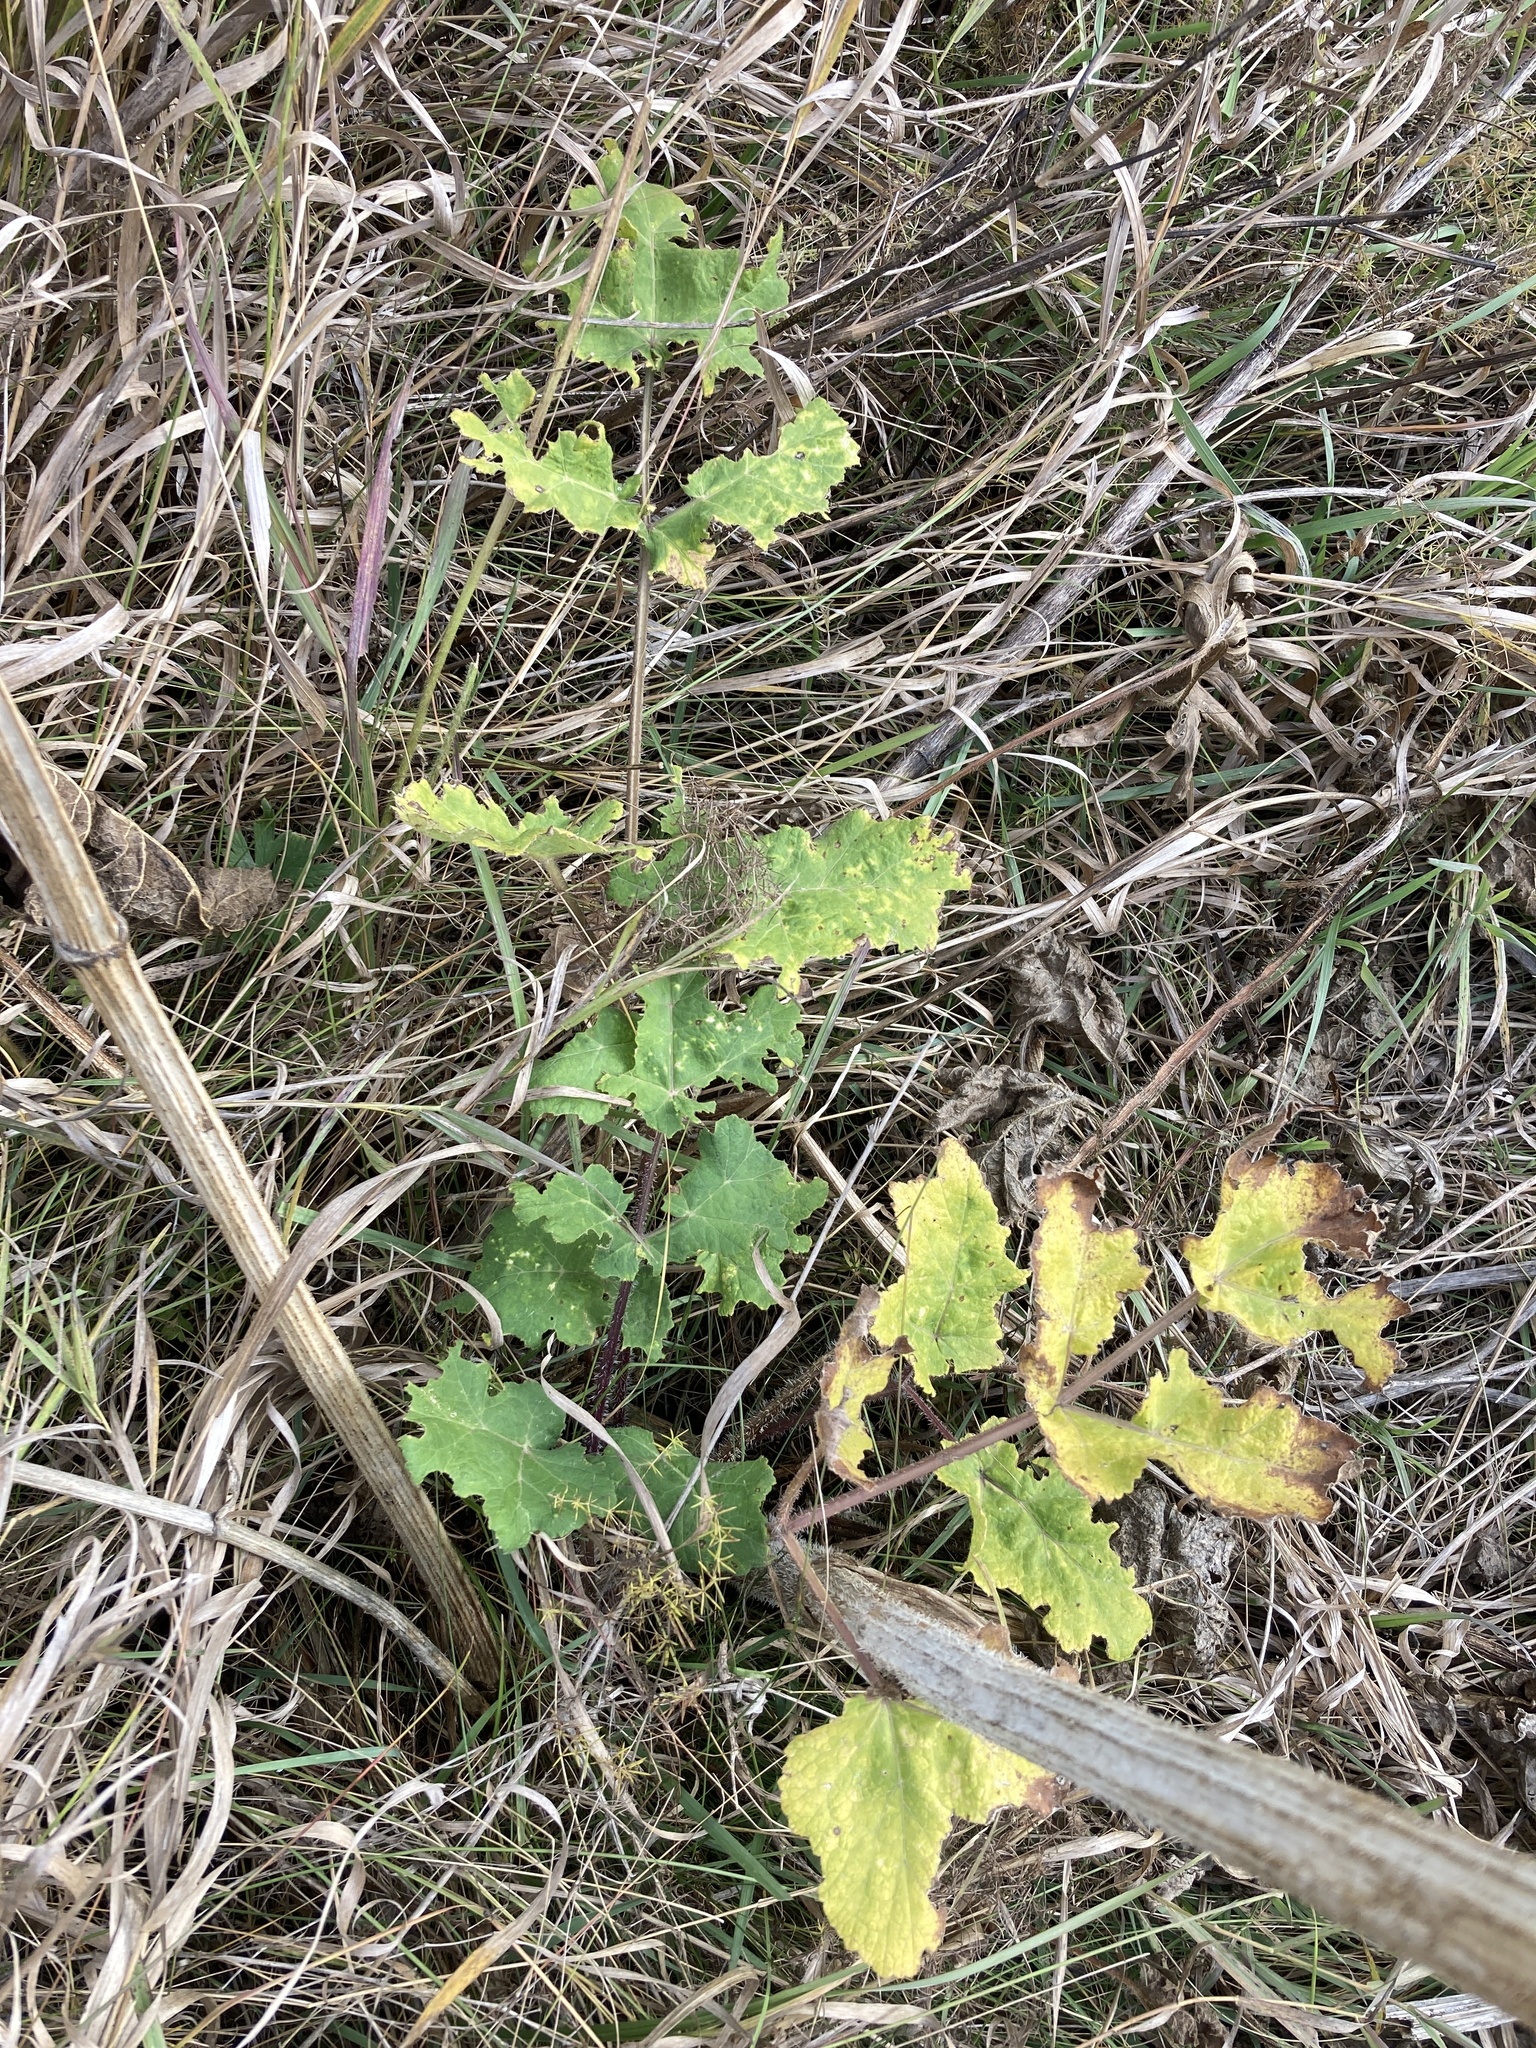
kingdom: Plantae
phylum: Tracheophyta
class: Magnoliopsida
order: Apiales
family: Apiaceae
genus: Heracleum
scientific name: Heracleum sphondylium
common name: Hogweed
